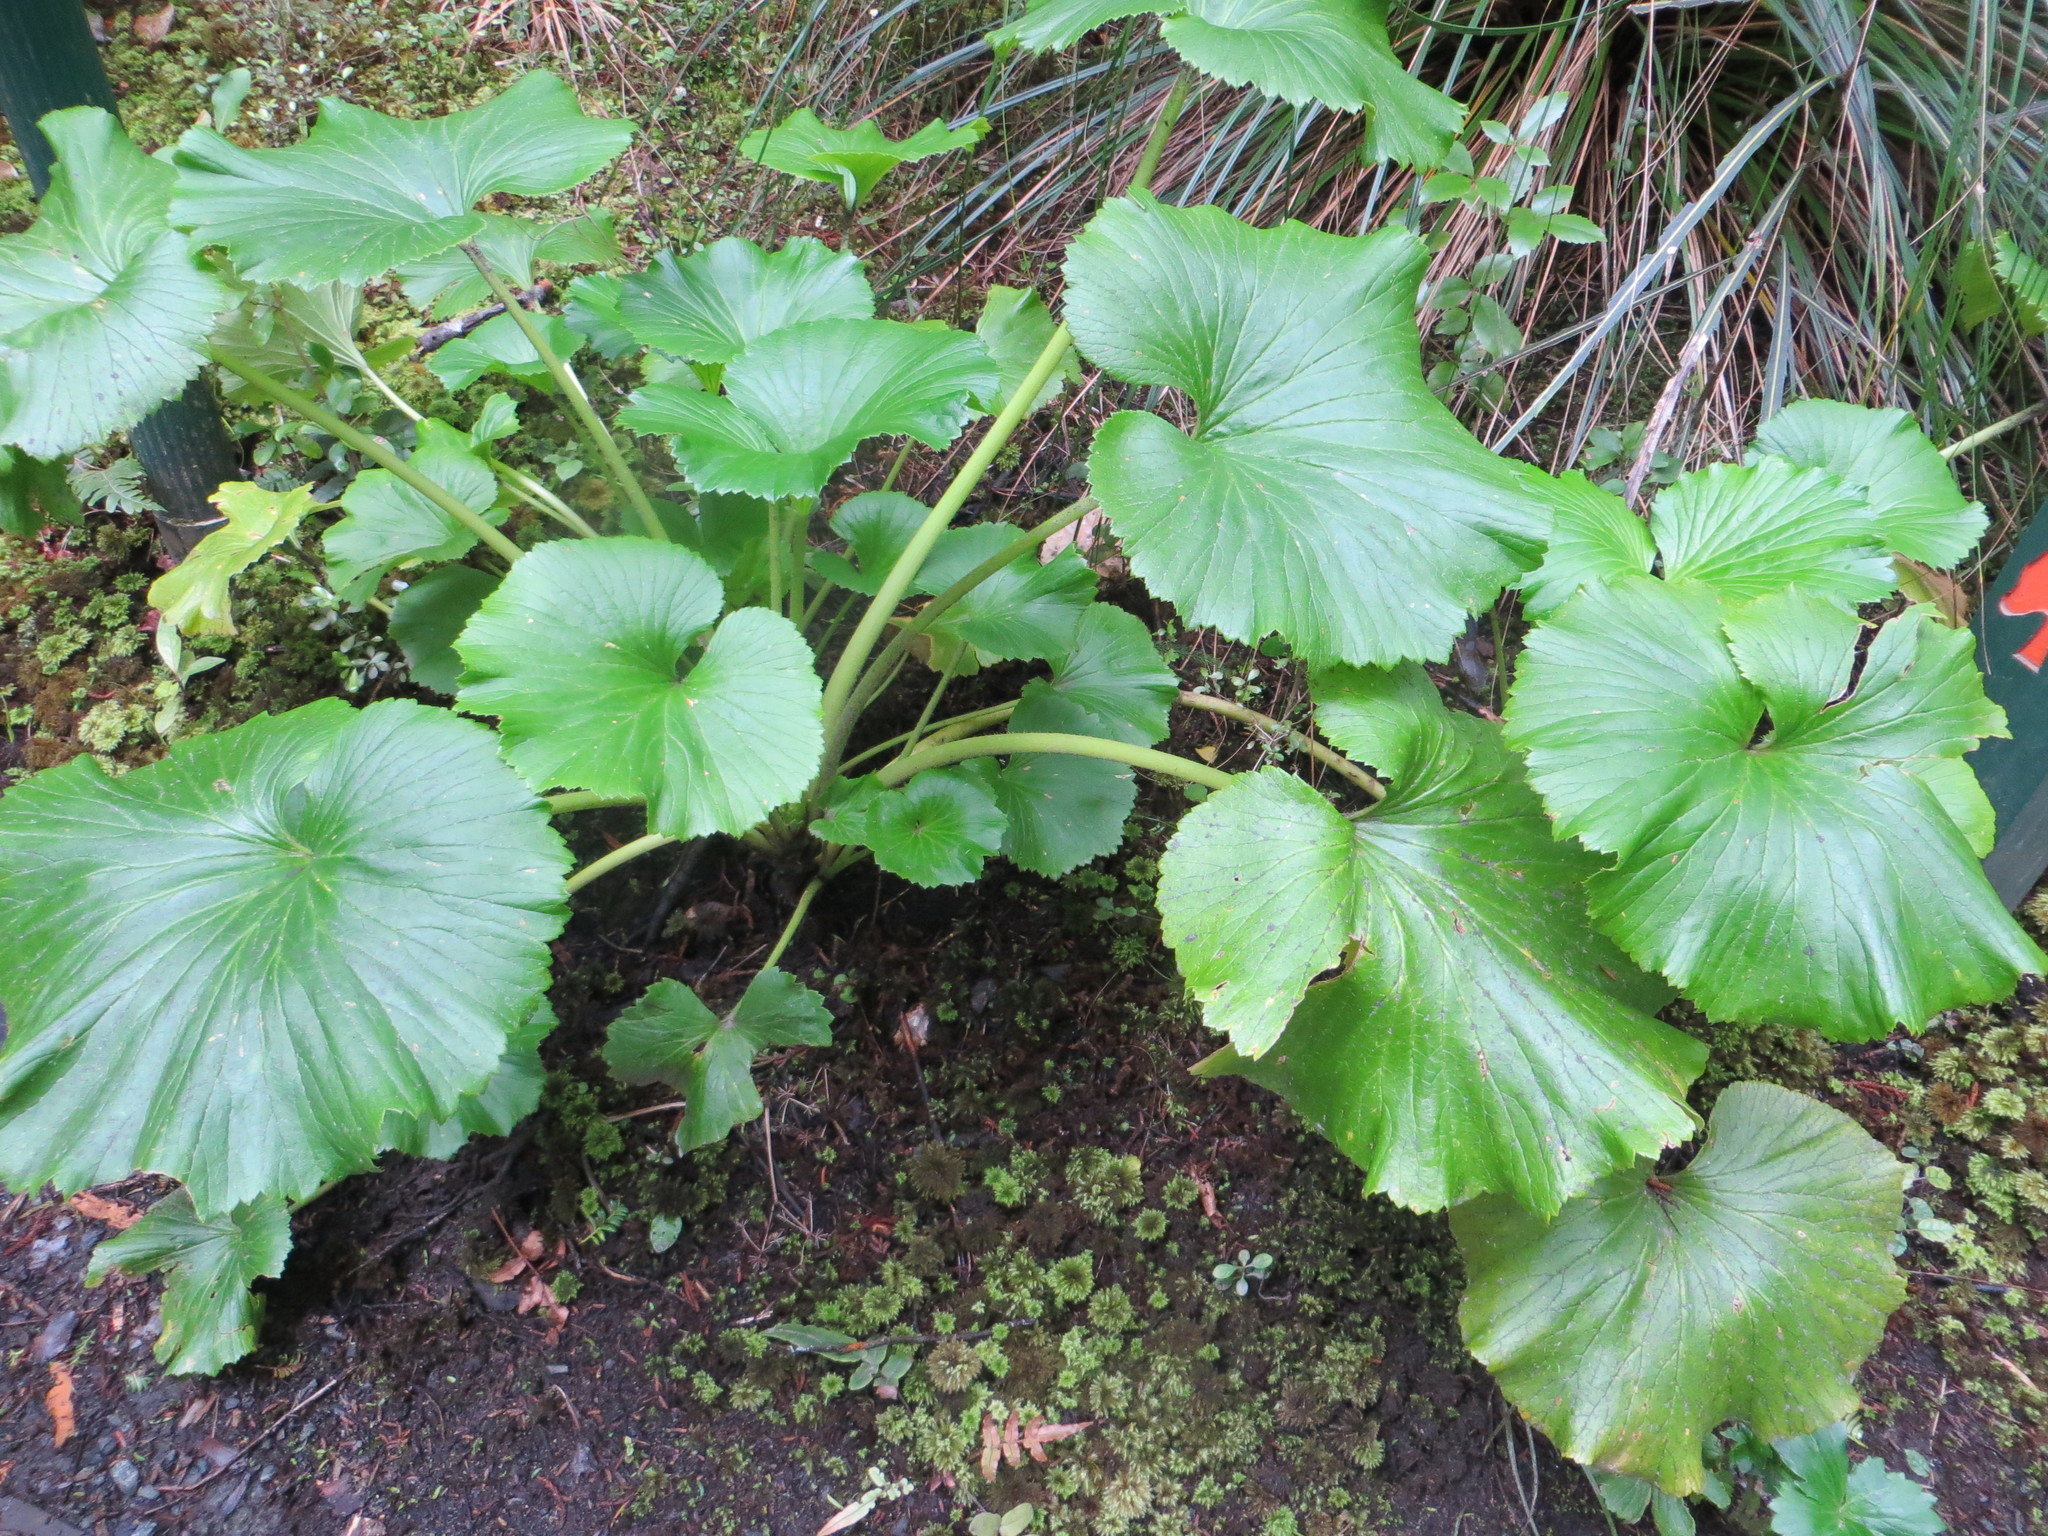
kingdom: Plantae
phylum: Tracheophyta
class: Magnoliopsida
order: Apiales
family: Apiaceae
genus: Azorella
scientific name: Azorella lyallii
